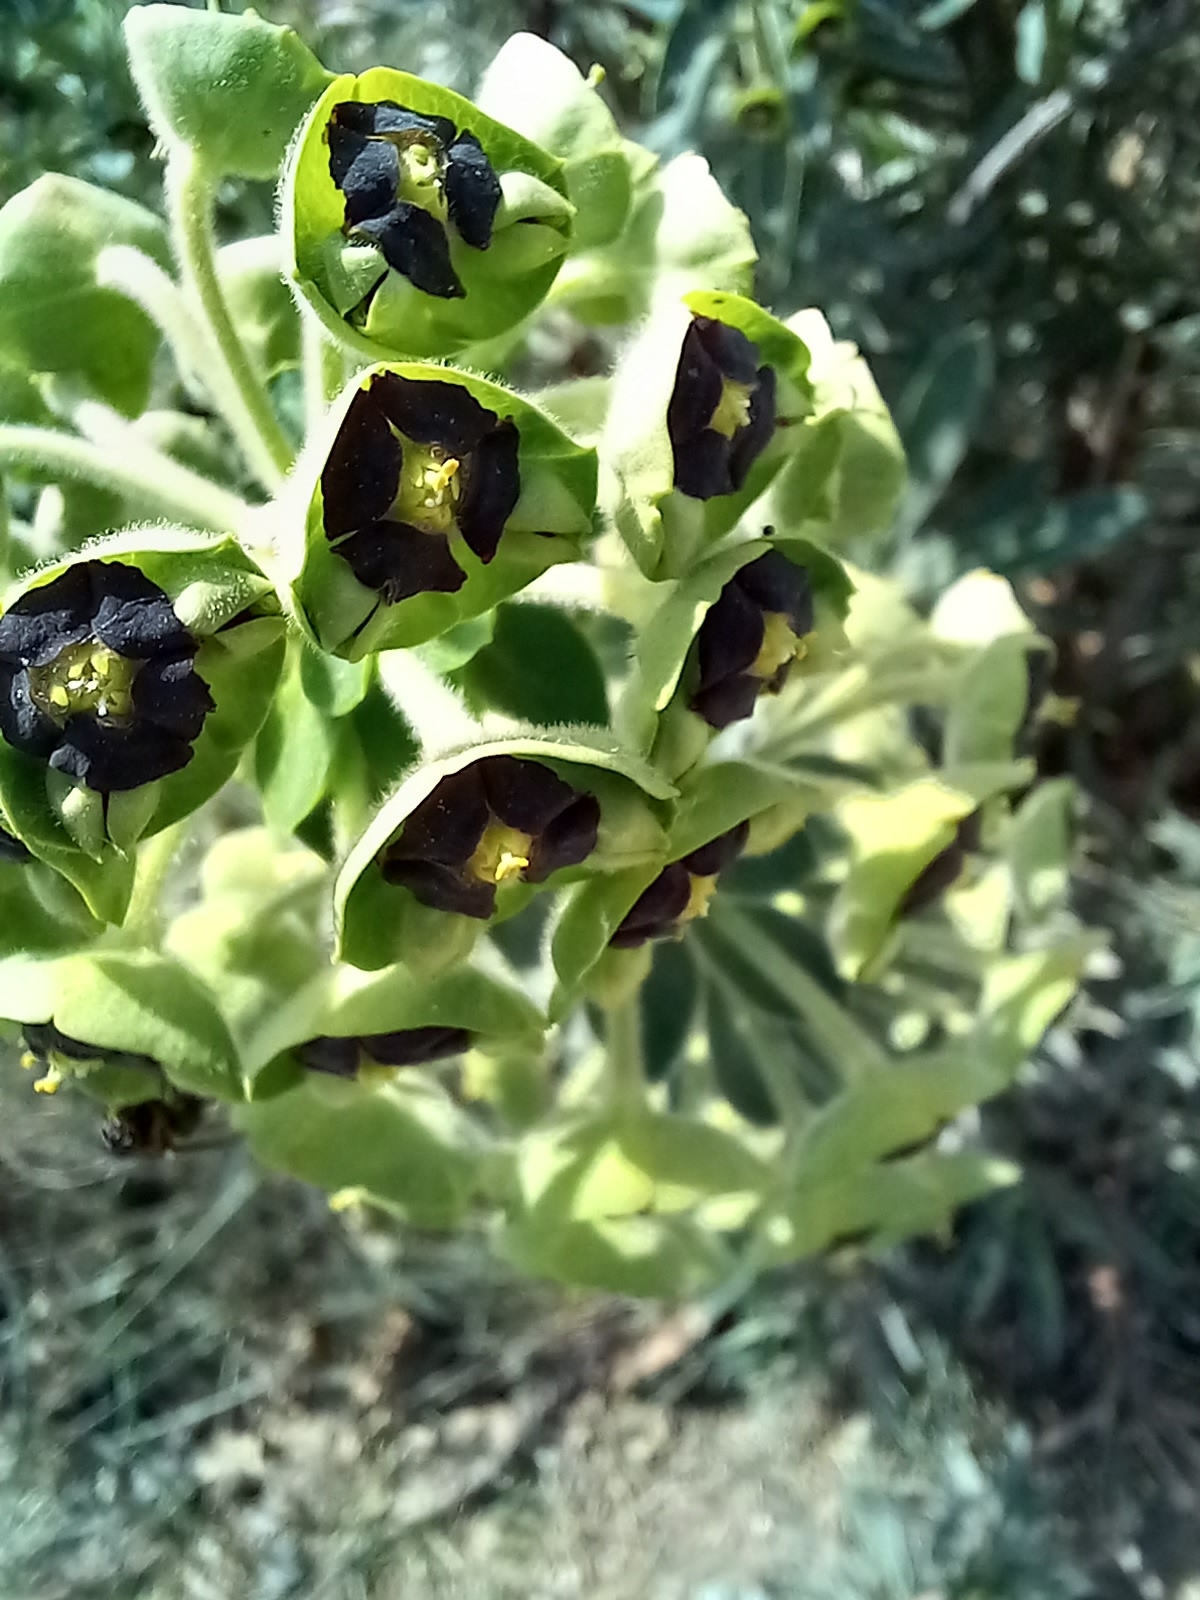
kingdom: Plantae
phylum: Tracheophyta
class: Magnoliopsida
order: Malpighiales
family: Euphorbiaceae
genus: Euphorbia
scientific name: Euphorbia characias
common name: Mediterranean spurge
